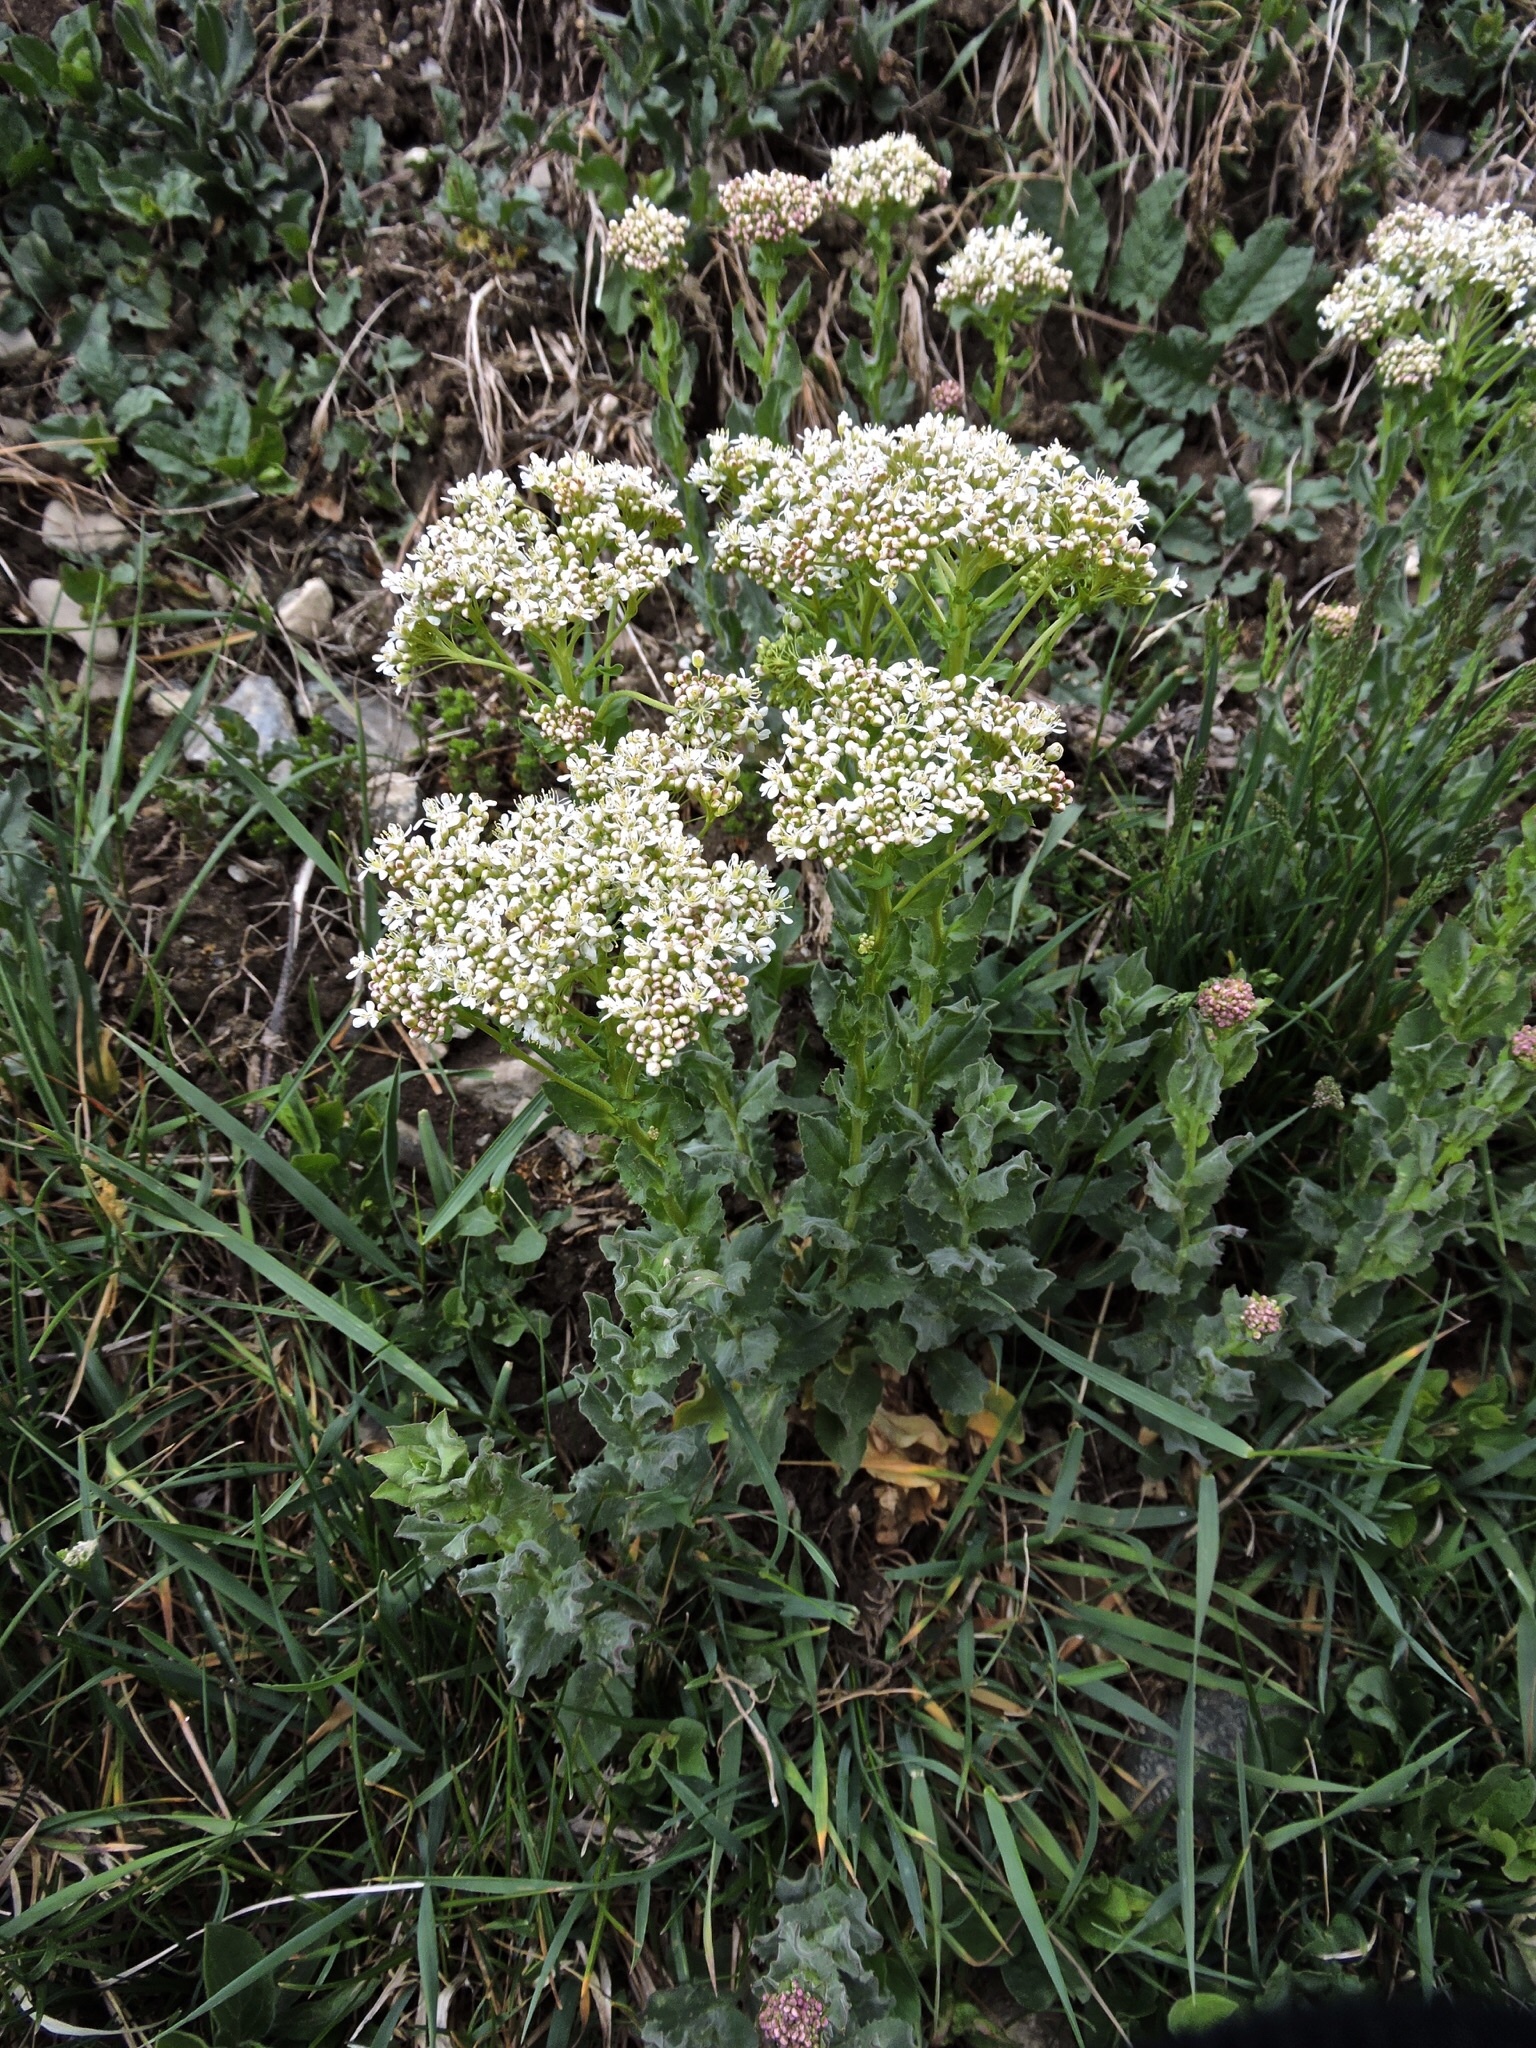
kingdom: Plantae
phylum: Tracheophyta
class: Magnoliopsida
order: Brassicales
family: Brassicaceae
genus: Lepidium
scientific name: Lepidium draba
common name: Hoary cress
